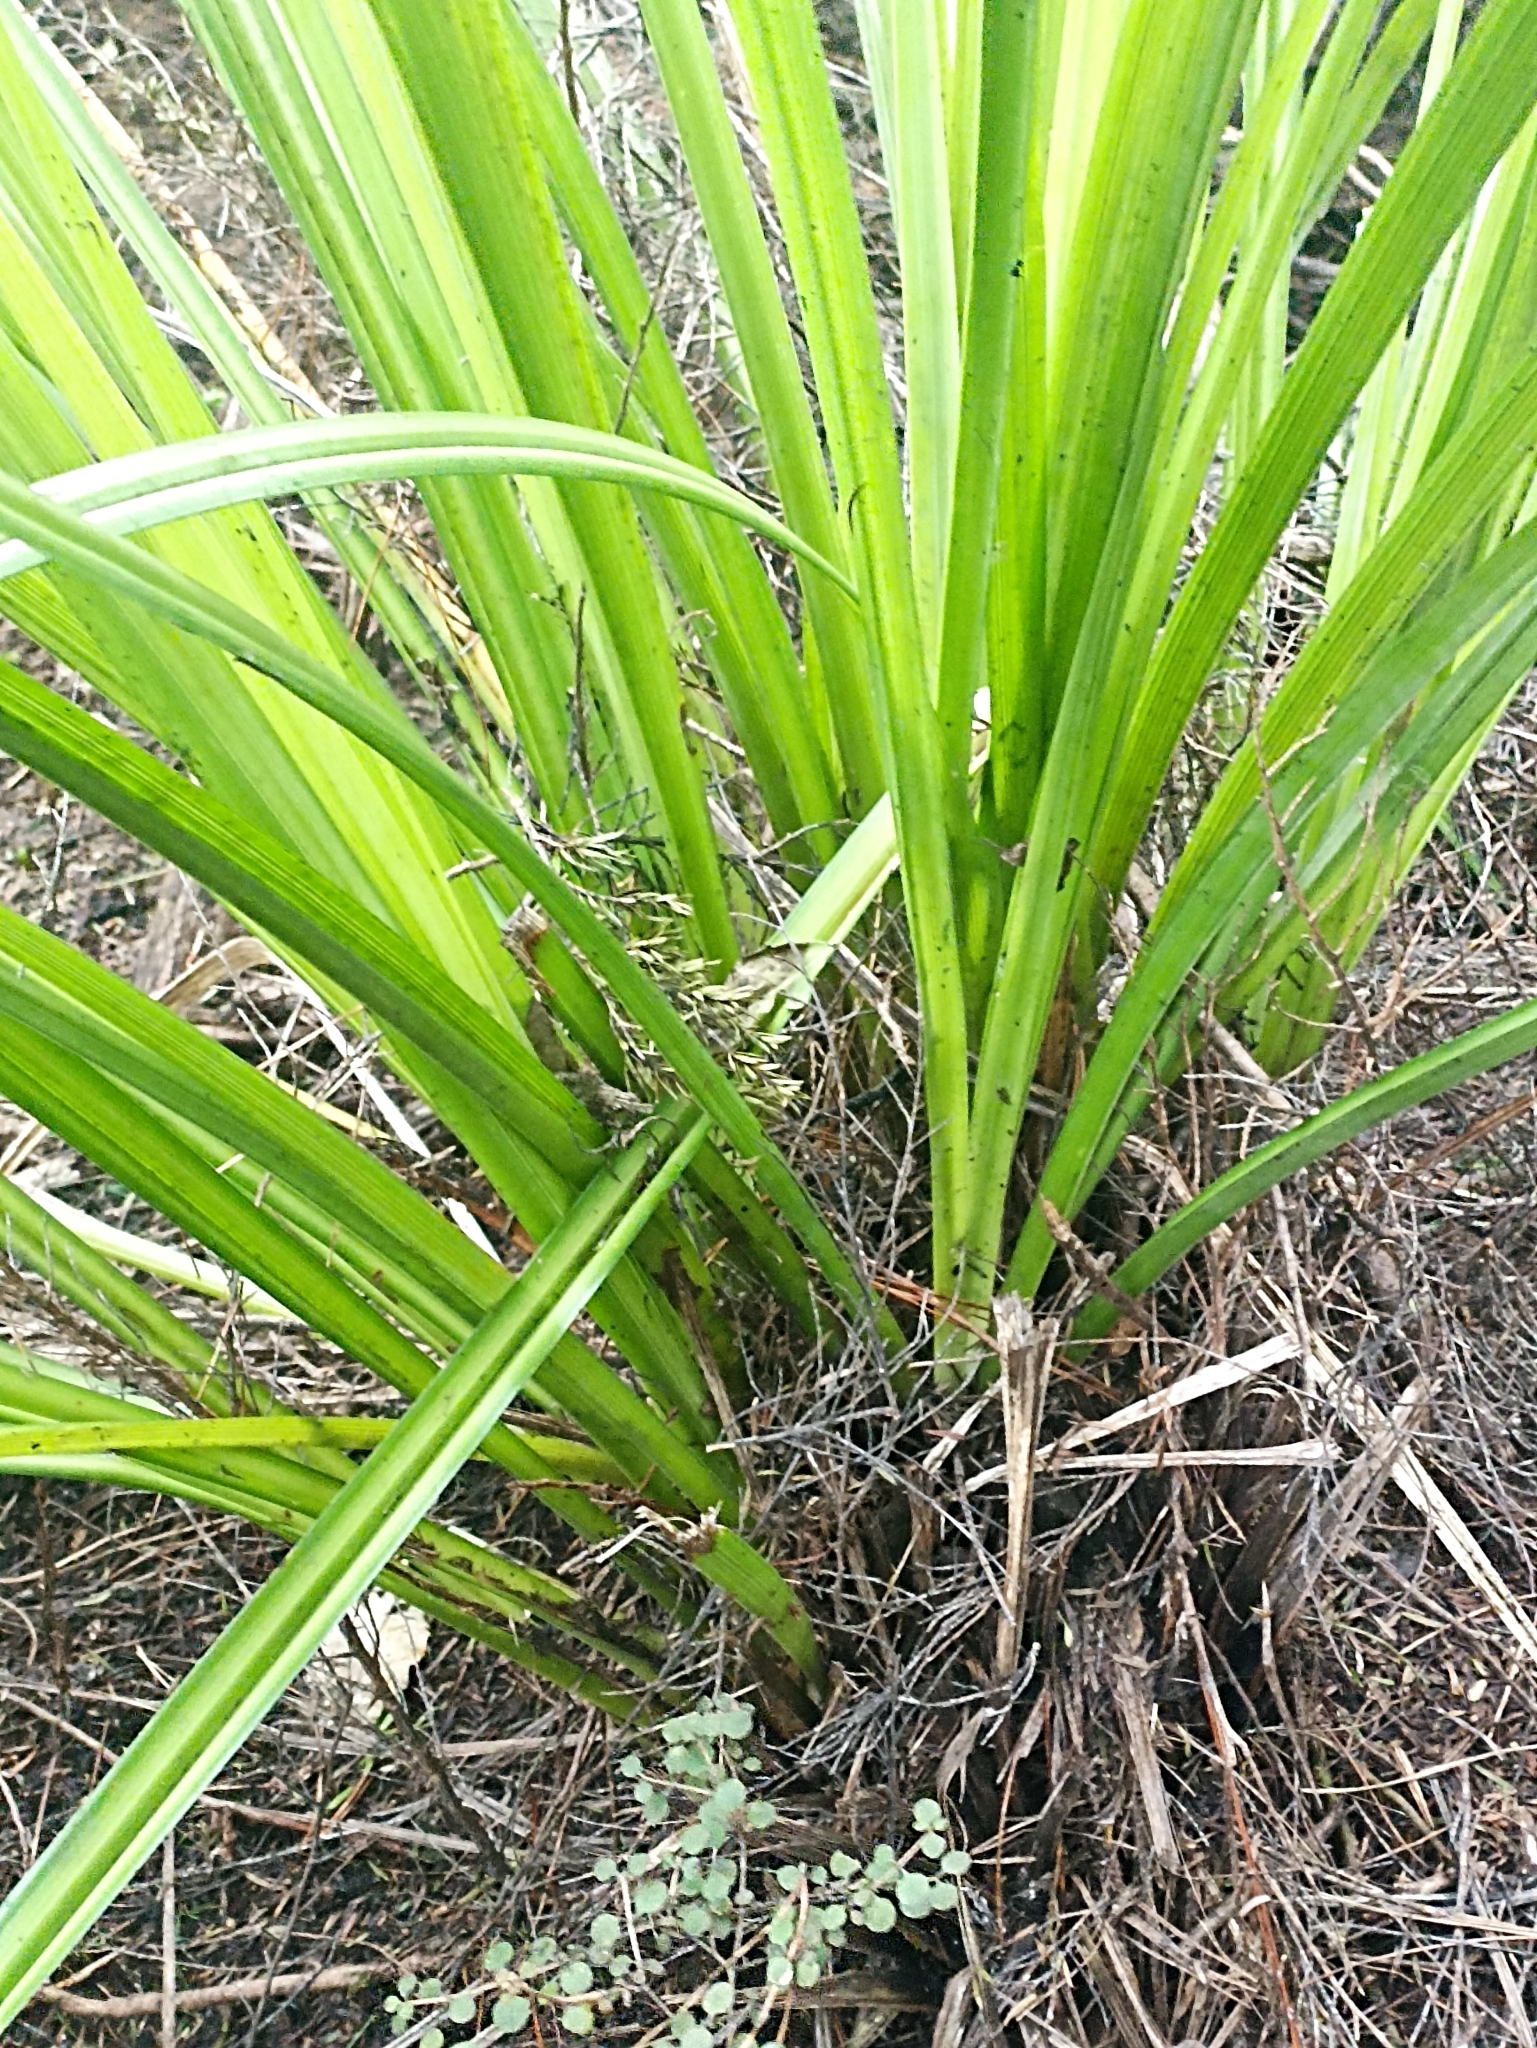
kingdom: Plantae
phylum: Tracheophyta
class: Liliopsida
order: Asparagales
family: Asteliaceae
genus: Astelia
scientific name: Astelia trinervia
